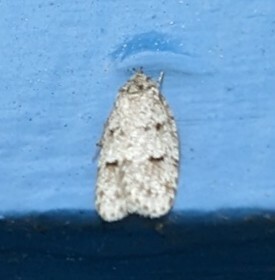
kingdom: Animalia
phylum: Arthropoda
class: Insecta
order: Lepidoptera
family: Depressariidae
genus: Bibarrambla
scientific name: Bibarrambla allenella
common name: Bog bibarrambla moth
